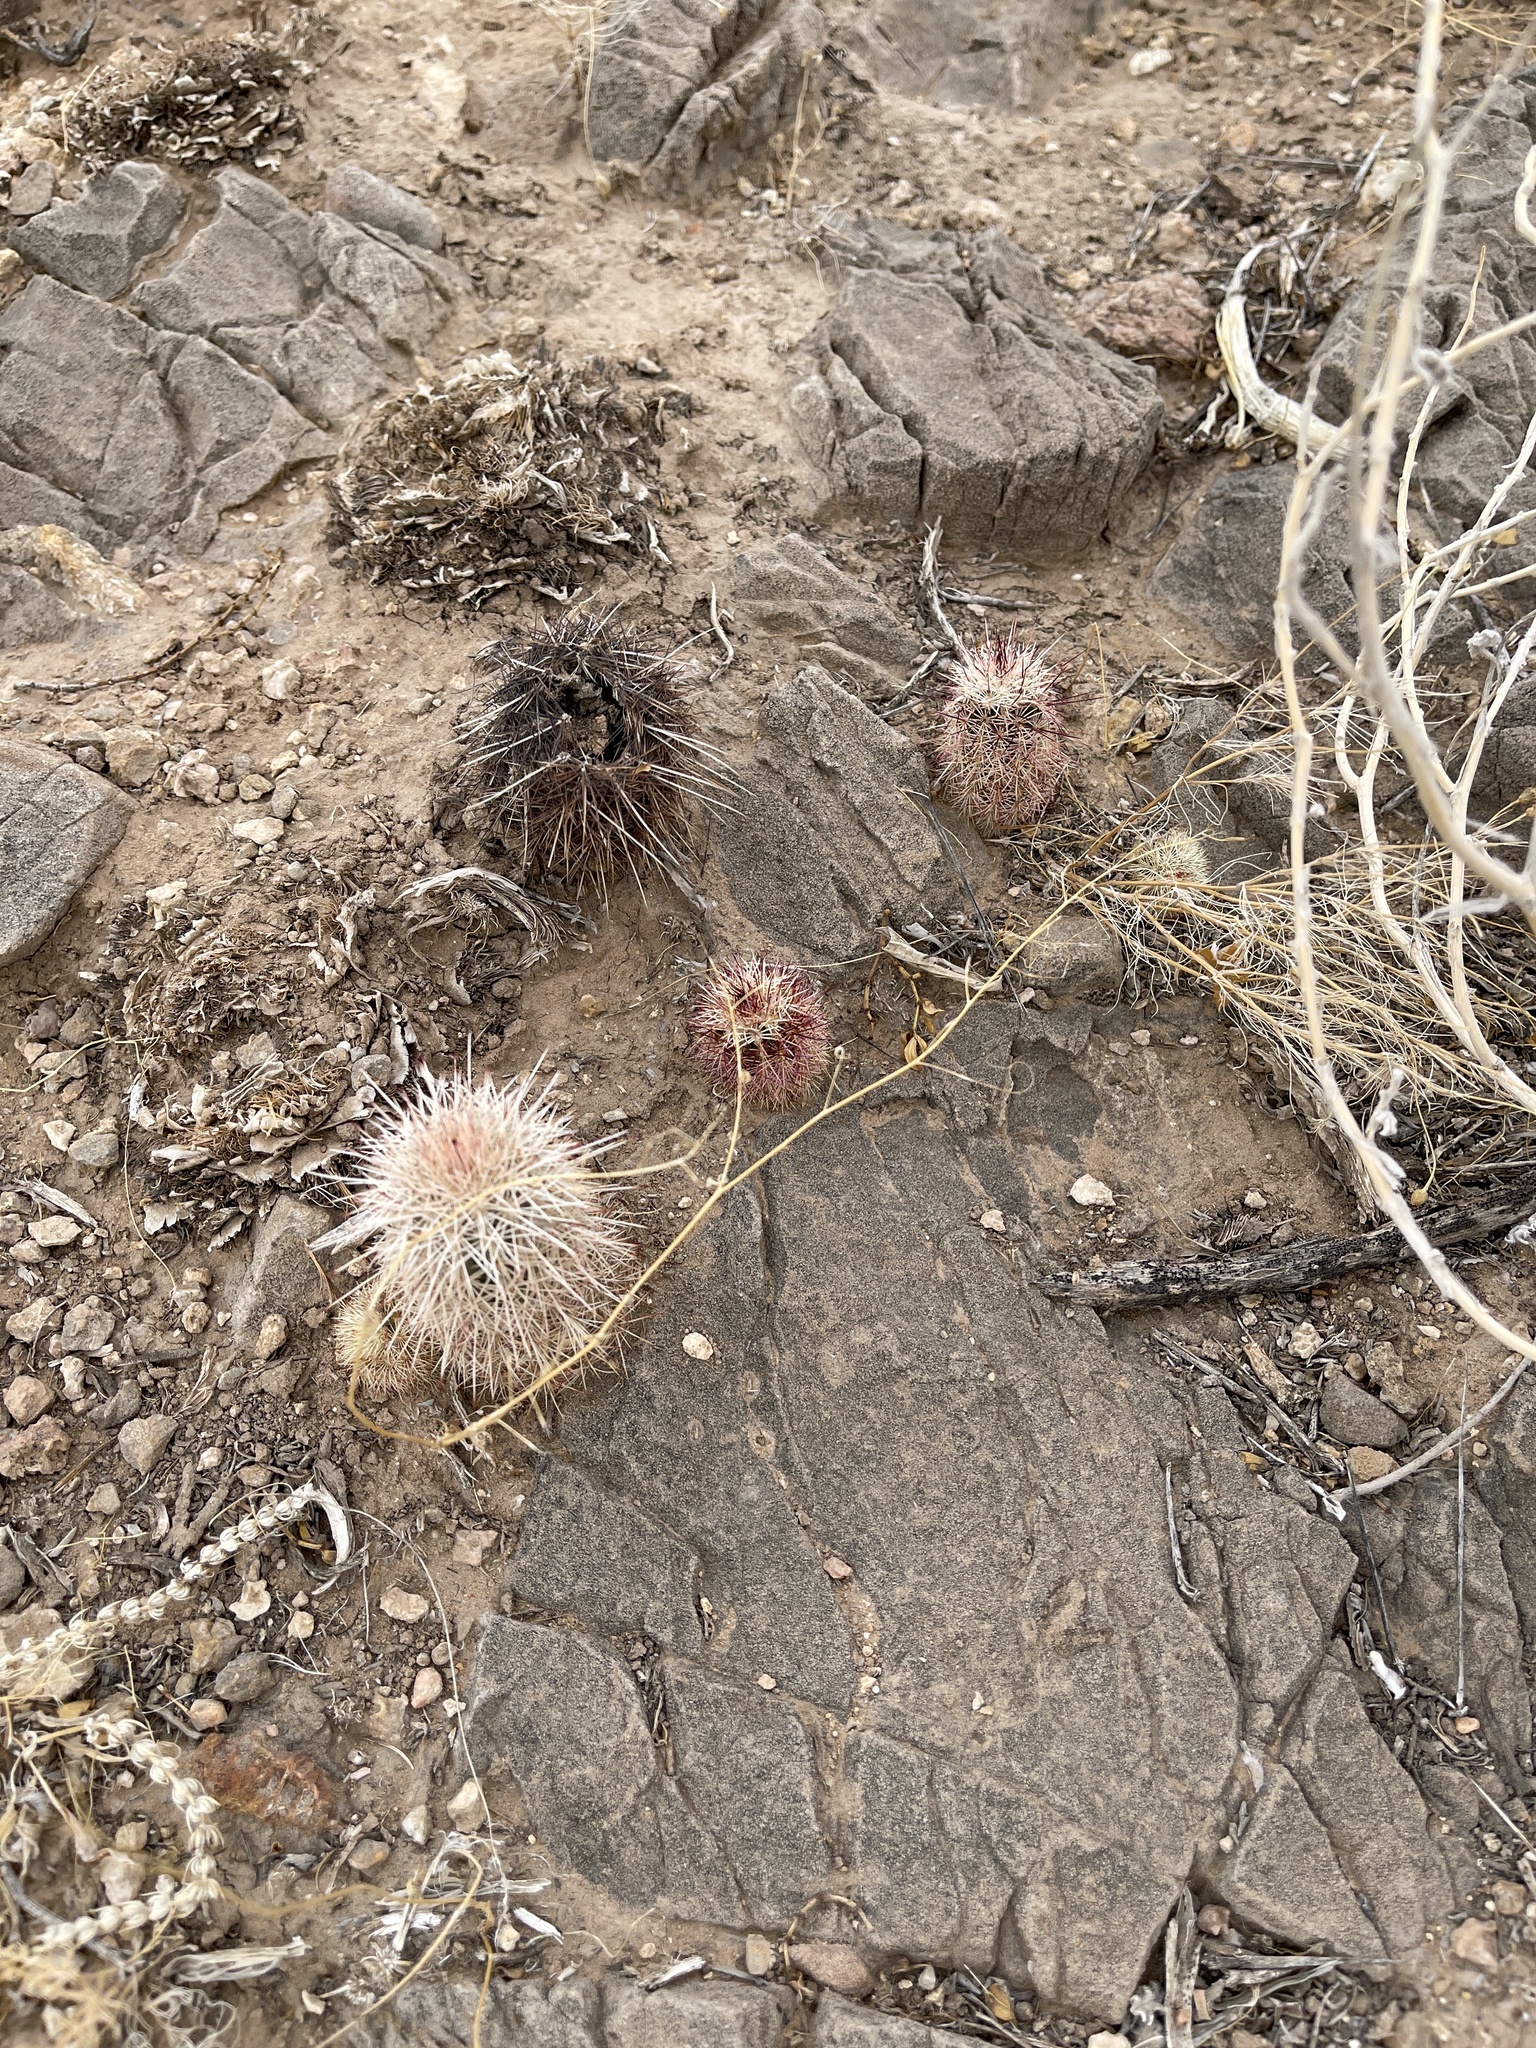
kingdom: Plantae
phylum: Tracheophyta
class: Magnoliopsida
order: Caryophyllales
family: Cactaceae
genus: Echinocereus
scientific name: Echinocereus viridiflorus
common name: Nylon hedgehog cactus
